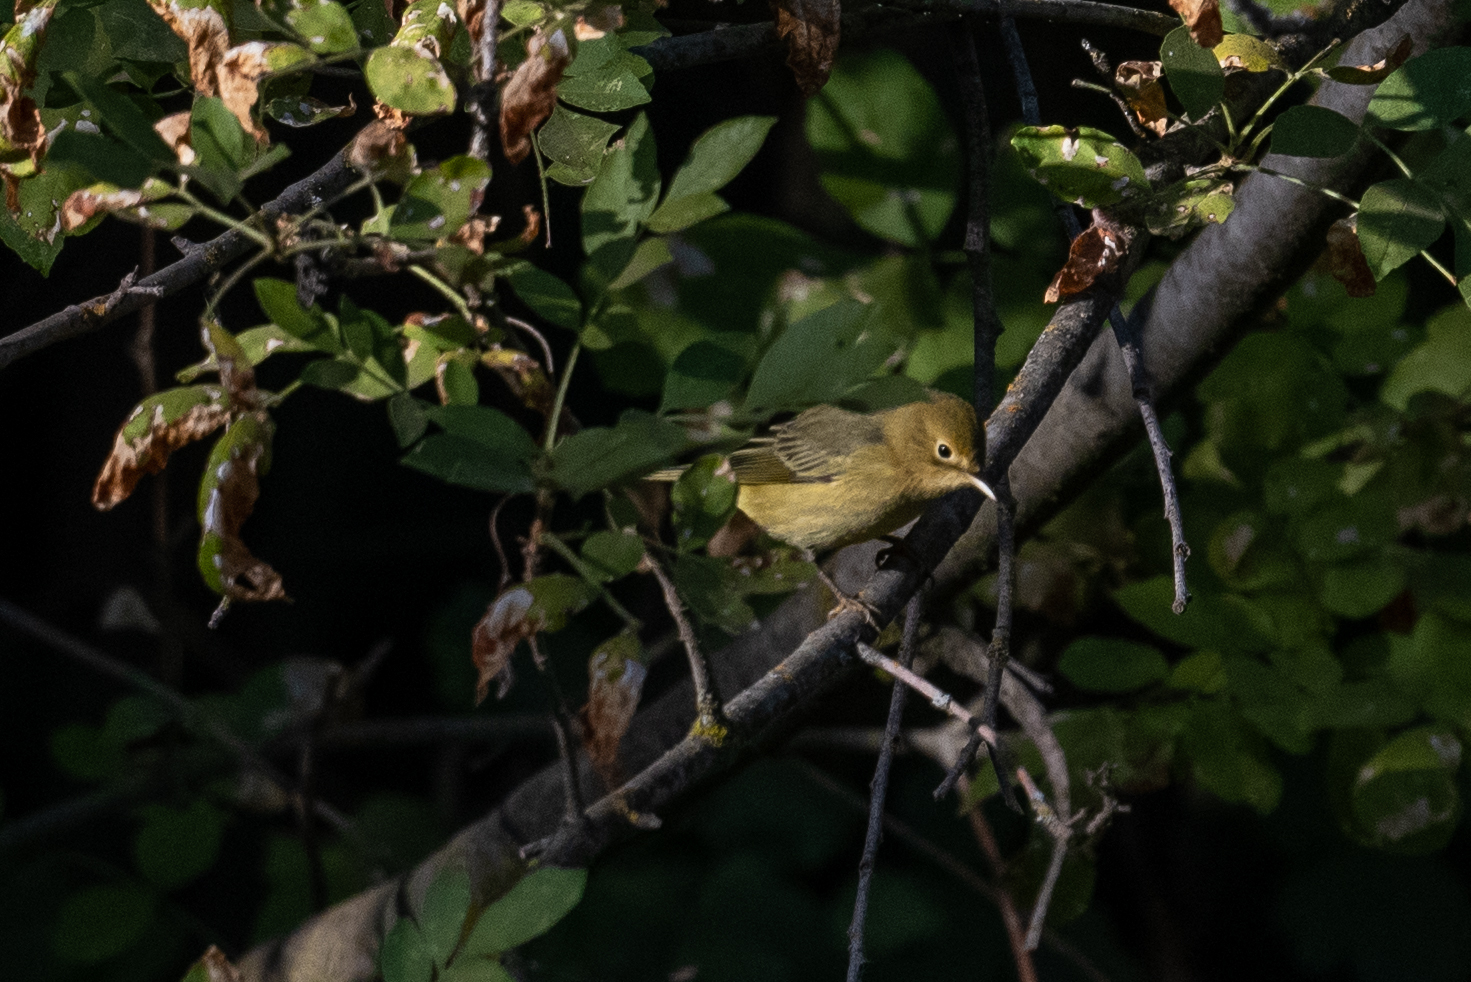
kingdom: Animalia
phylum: Chordata
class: Aves
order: Passeriformes
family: Parulidae
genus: Setophaga
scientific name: Setophaga petechia
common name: Yellow warbler
